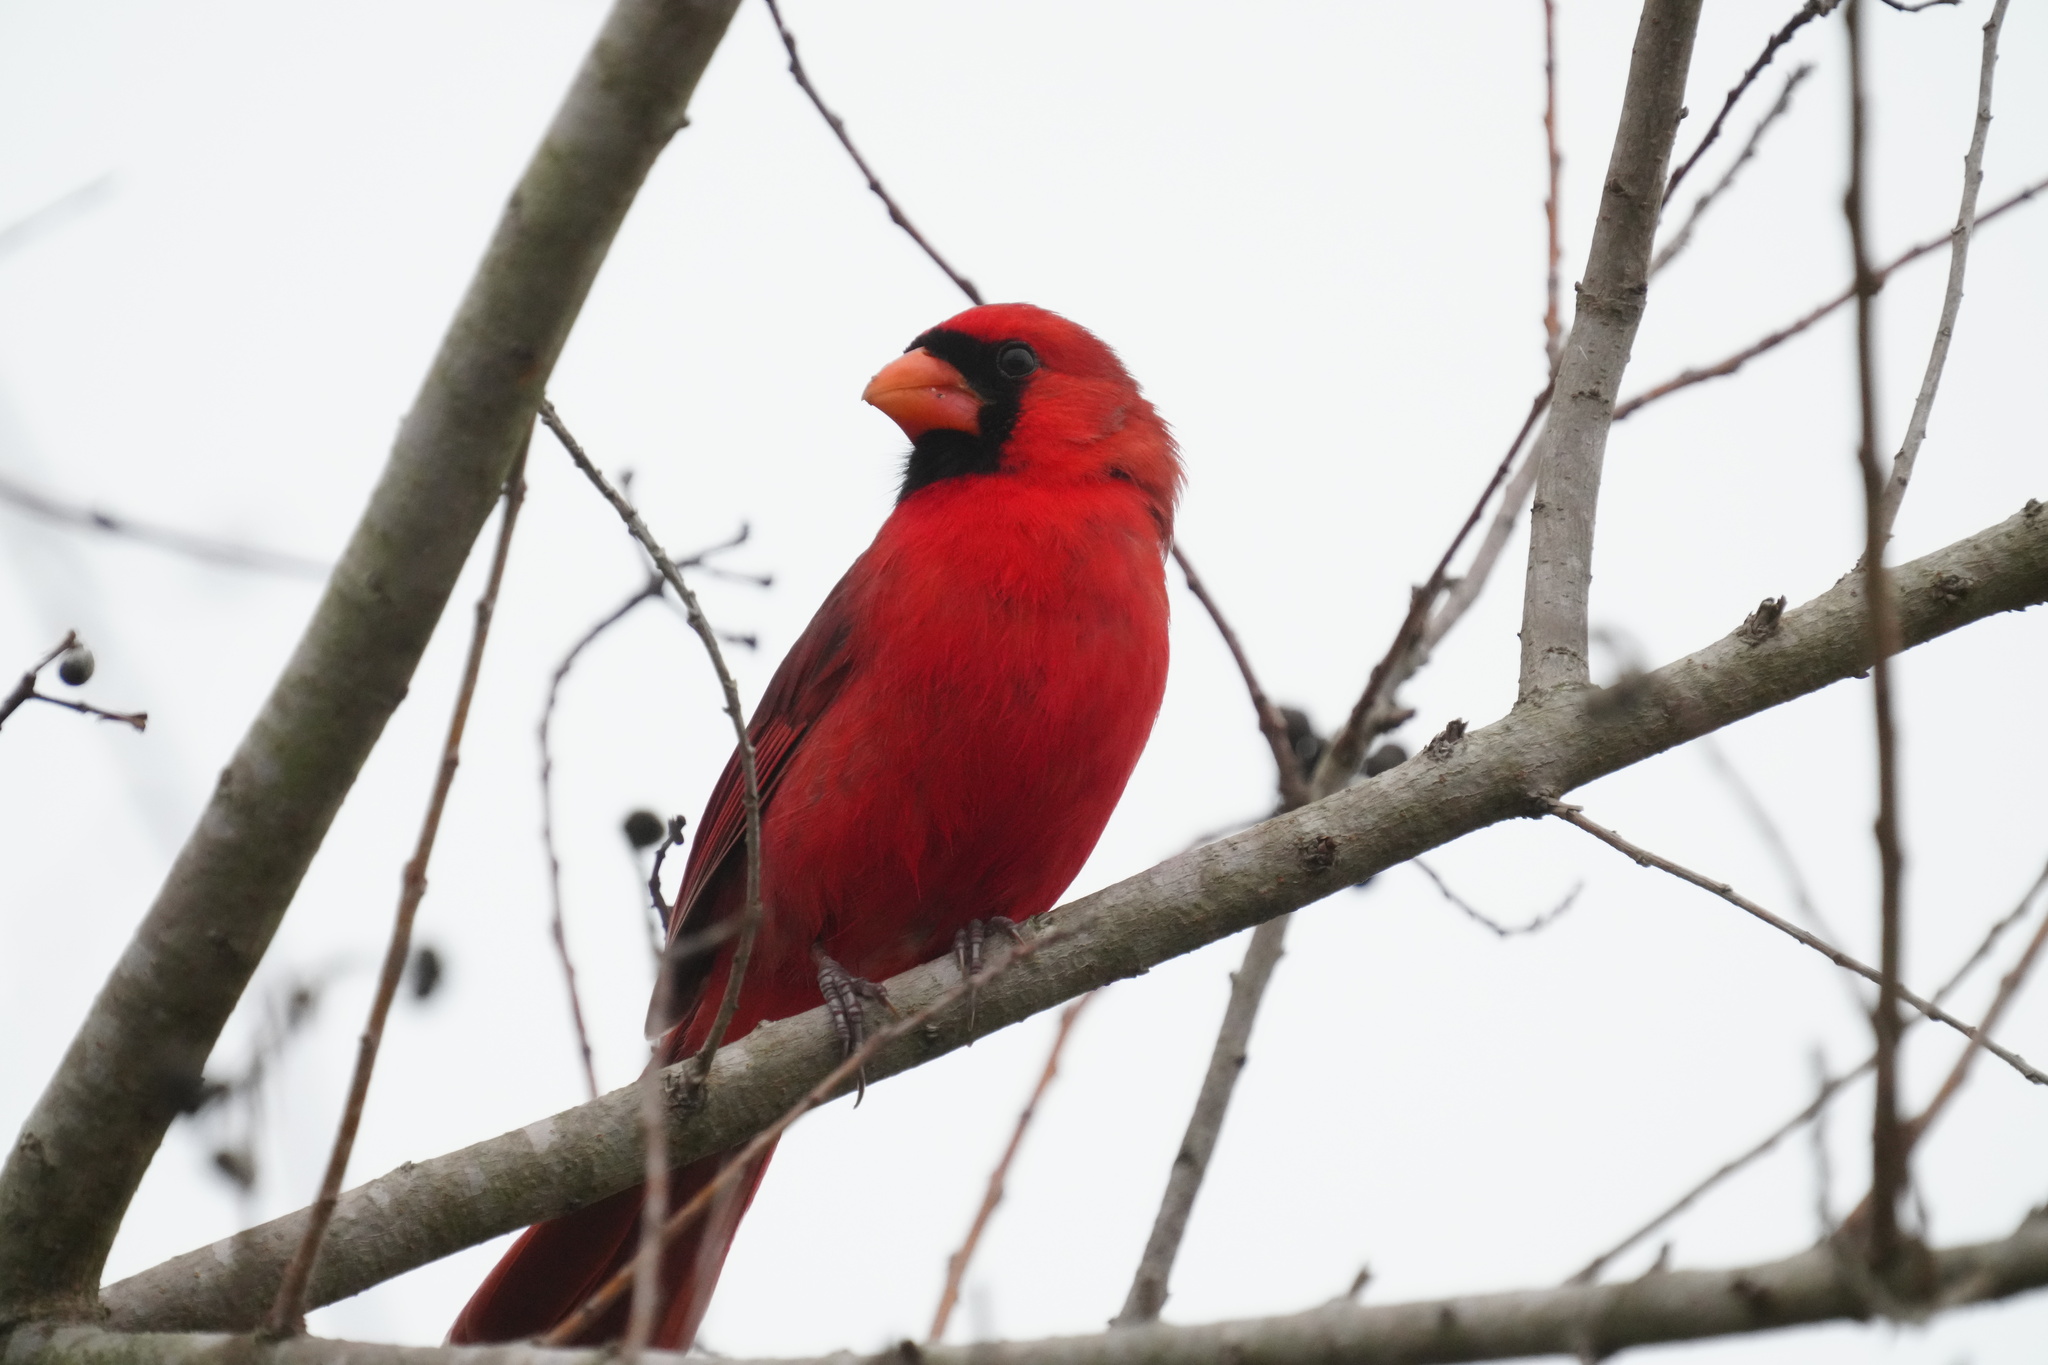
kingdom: Animalia
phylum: Chordata
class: Aves
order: Passeriformes
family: Cardinalidae
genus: Cardinalis
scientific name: Cardinalis cardinalis
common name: Northern cardinal
